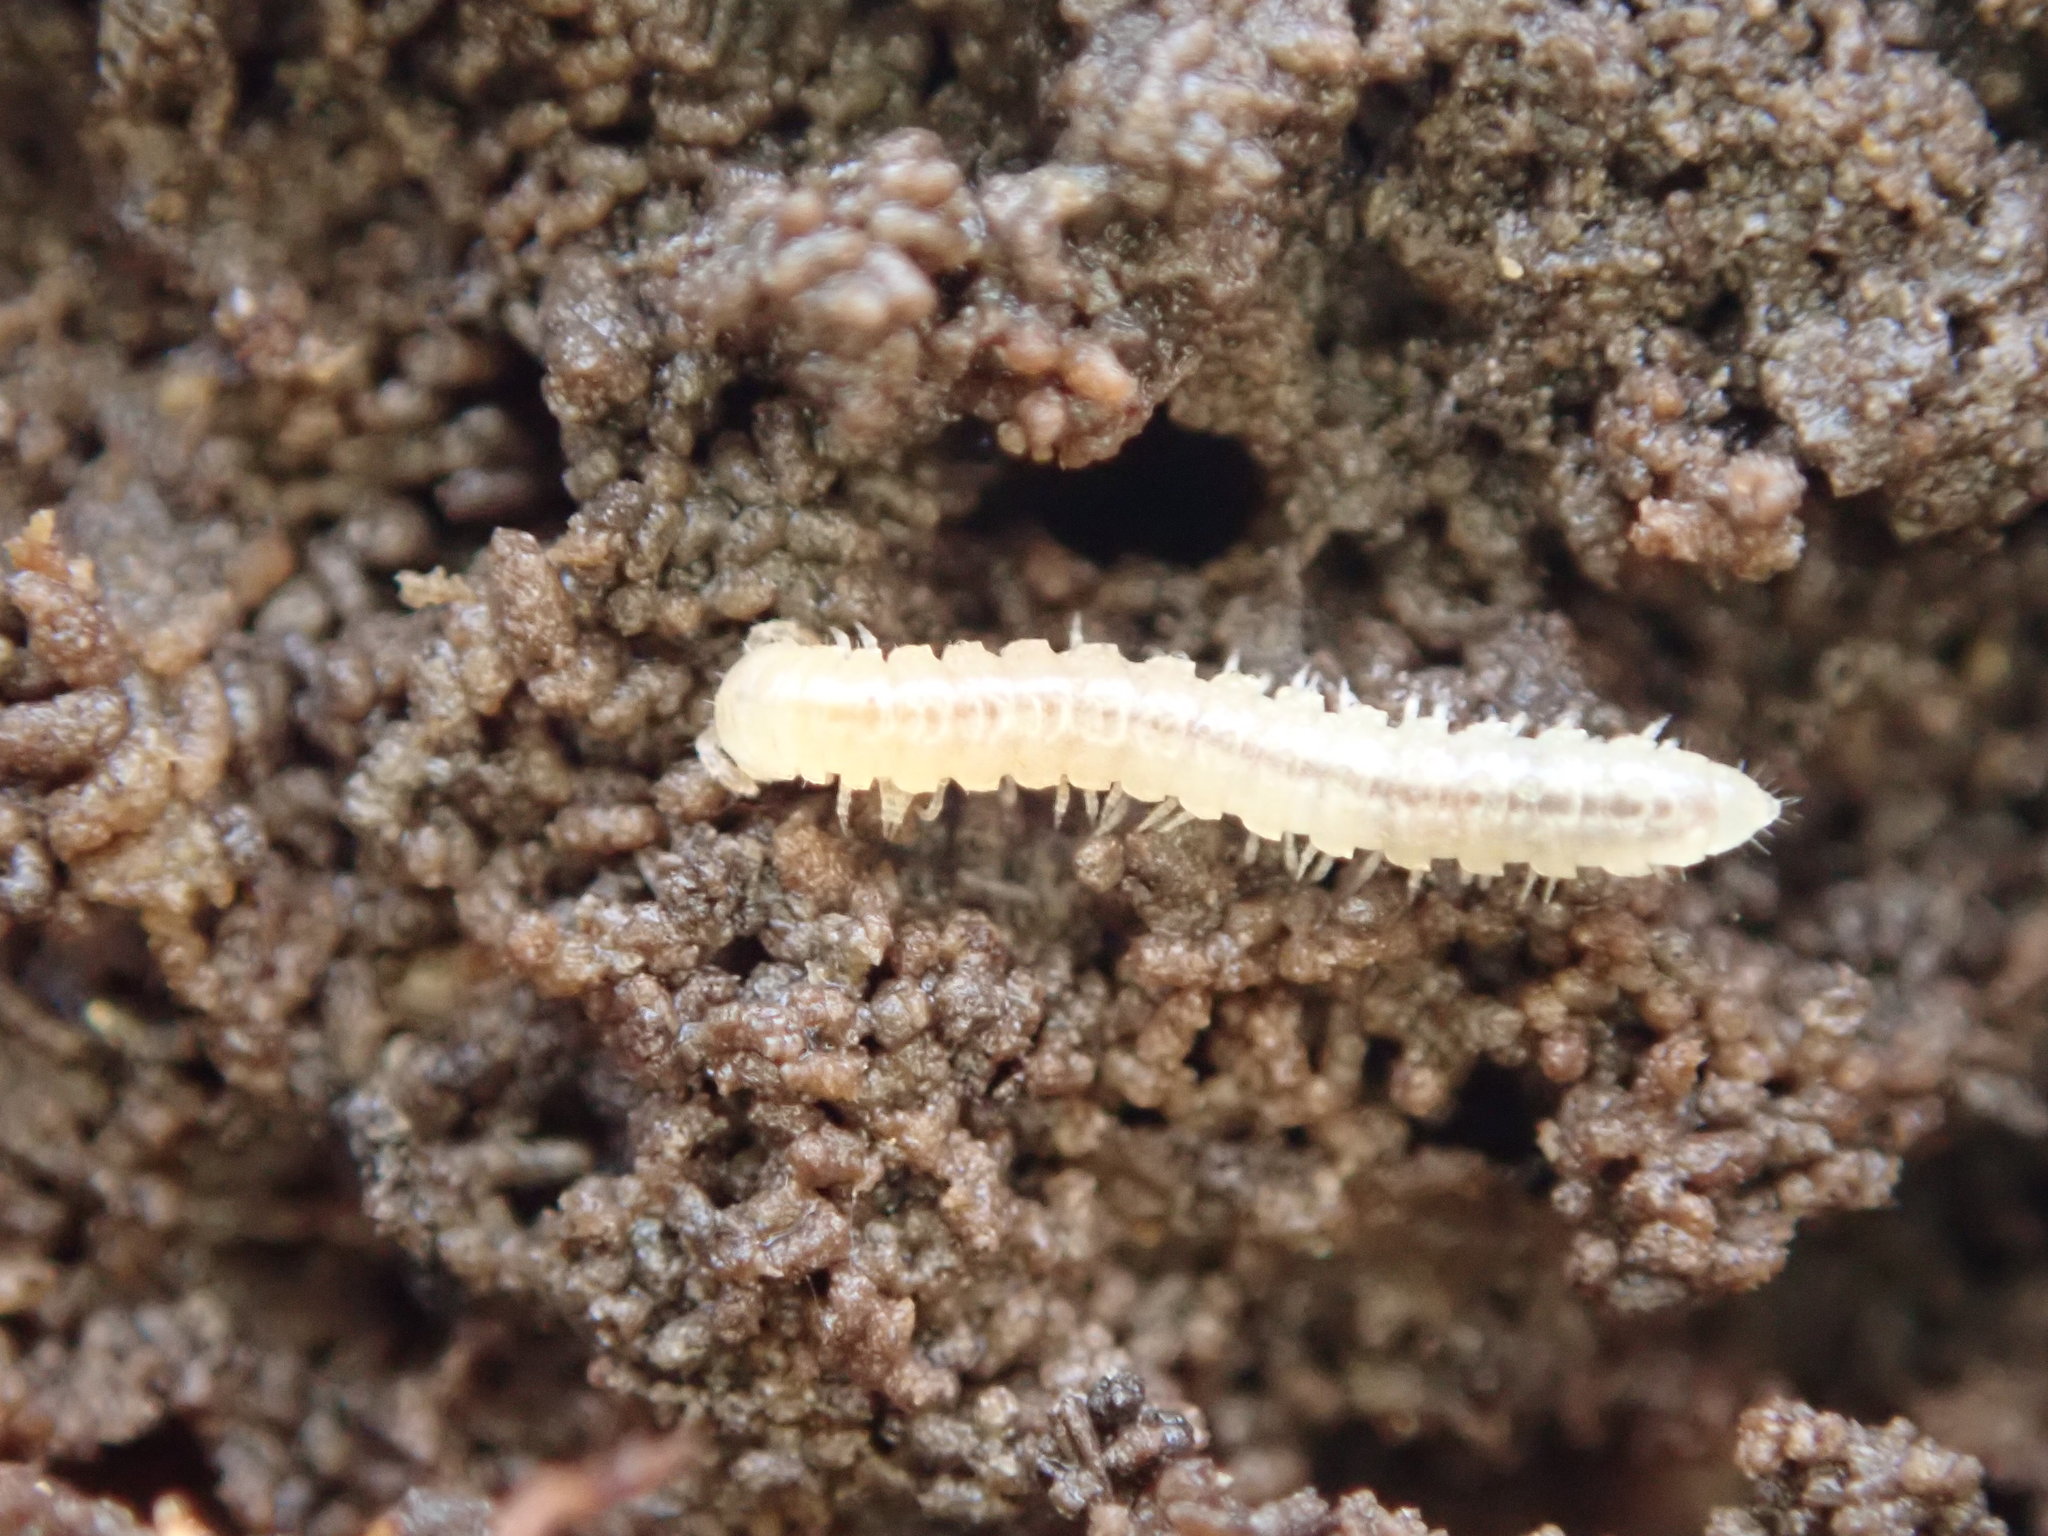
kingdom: Animalia
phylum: Arthropoda
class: Diplopoda
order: Polydesmida
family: Paradoxosomatidae
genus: Oxidus
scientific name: Oxidus gracilis
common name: Greenhouse millipede
